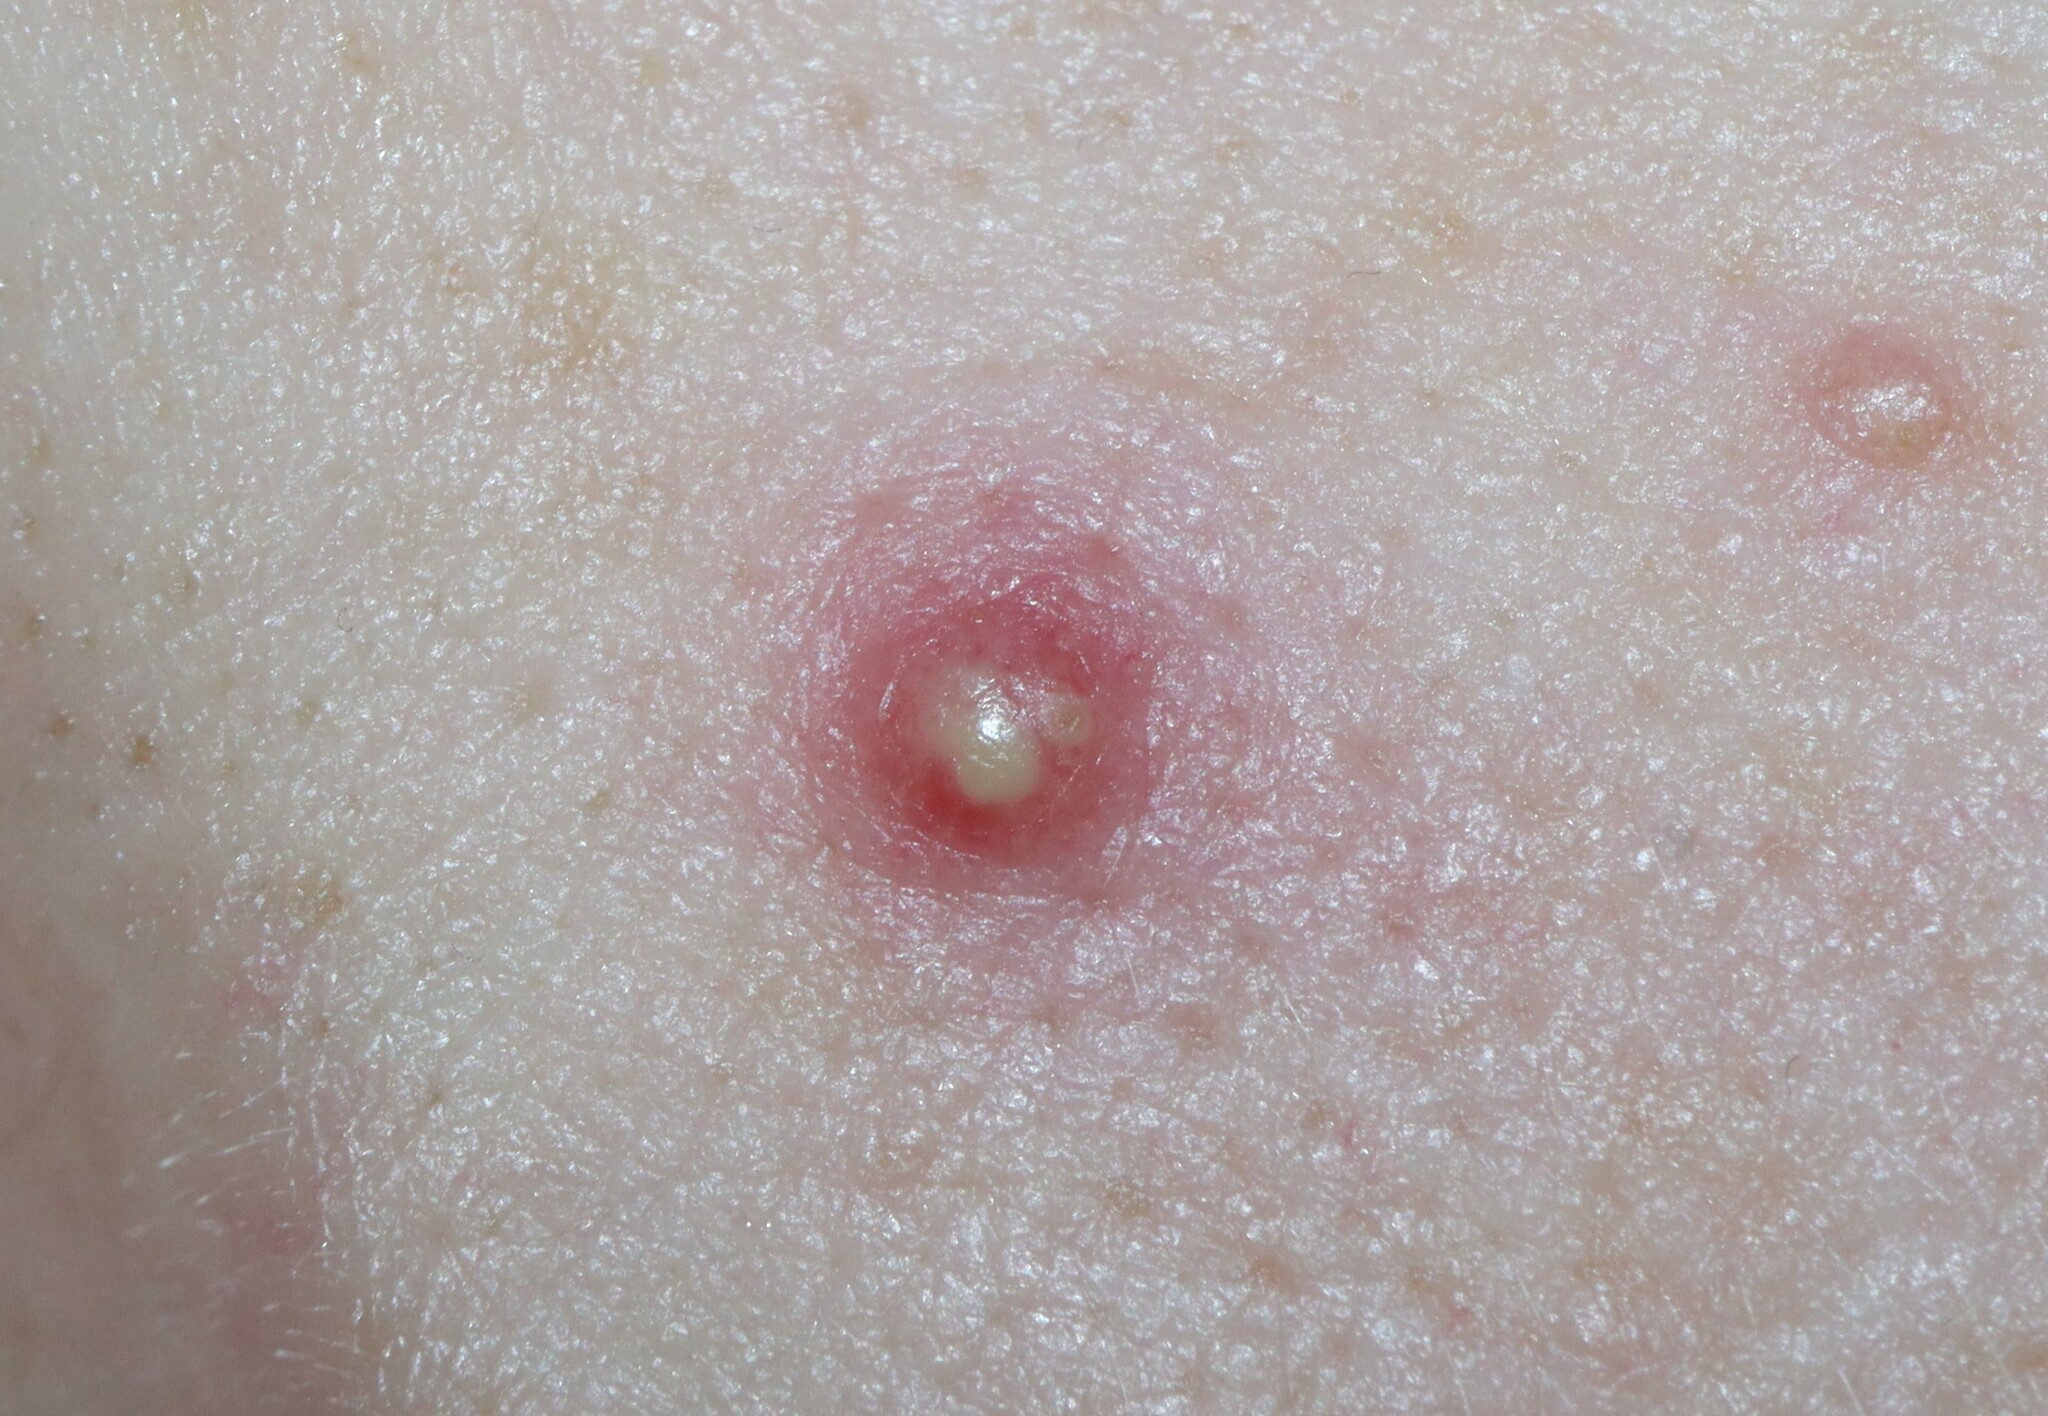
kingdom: Bacteria
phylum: Actinobacteriota
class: Actinomycetia
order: Propionibacteriales
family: Propionibacteriaceae
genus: Cutibacterium
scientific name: Cutibacterium acnes
